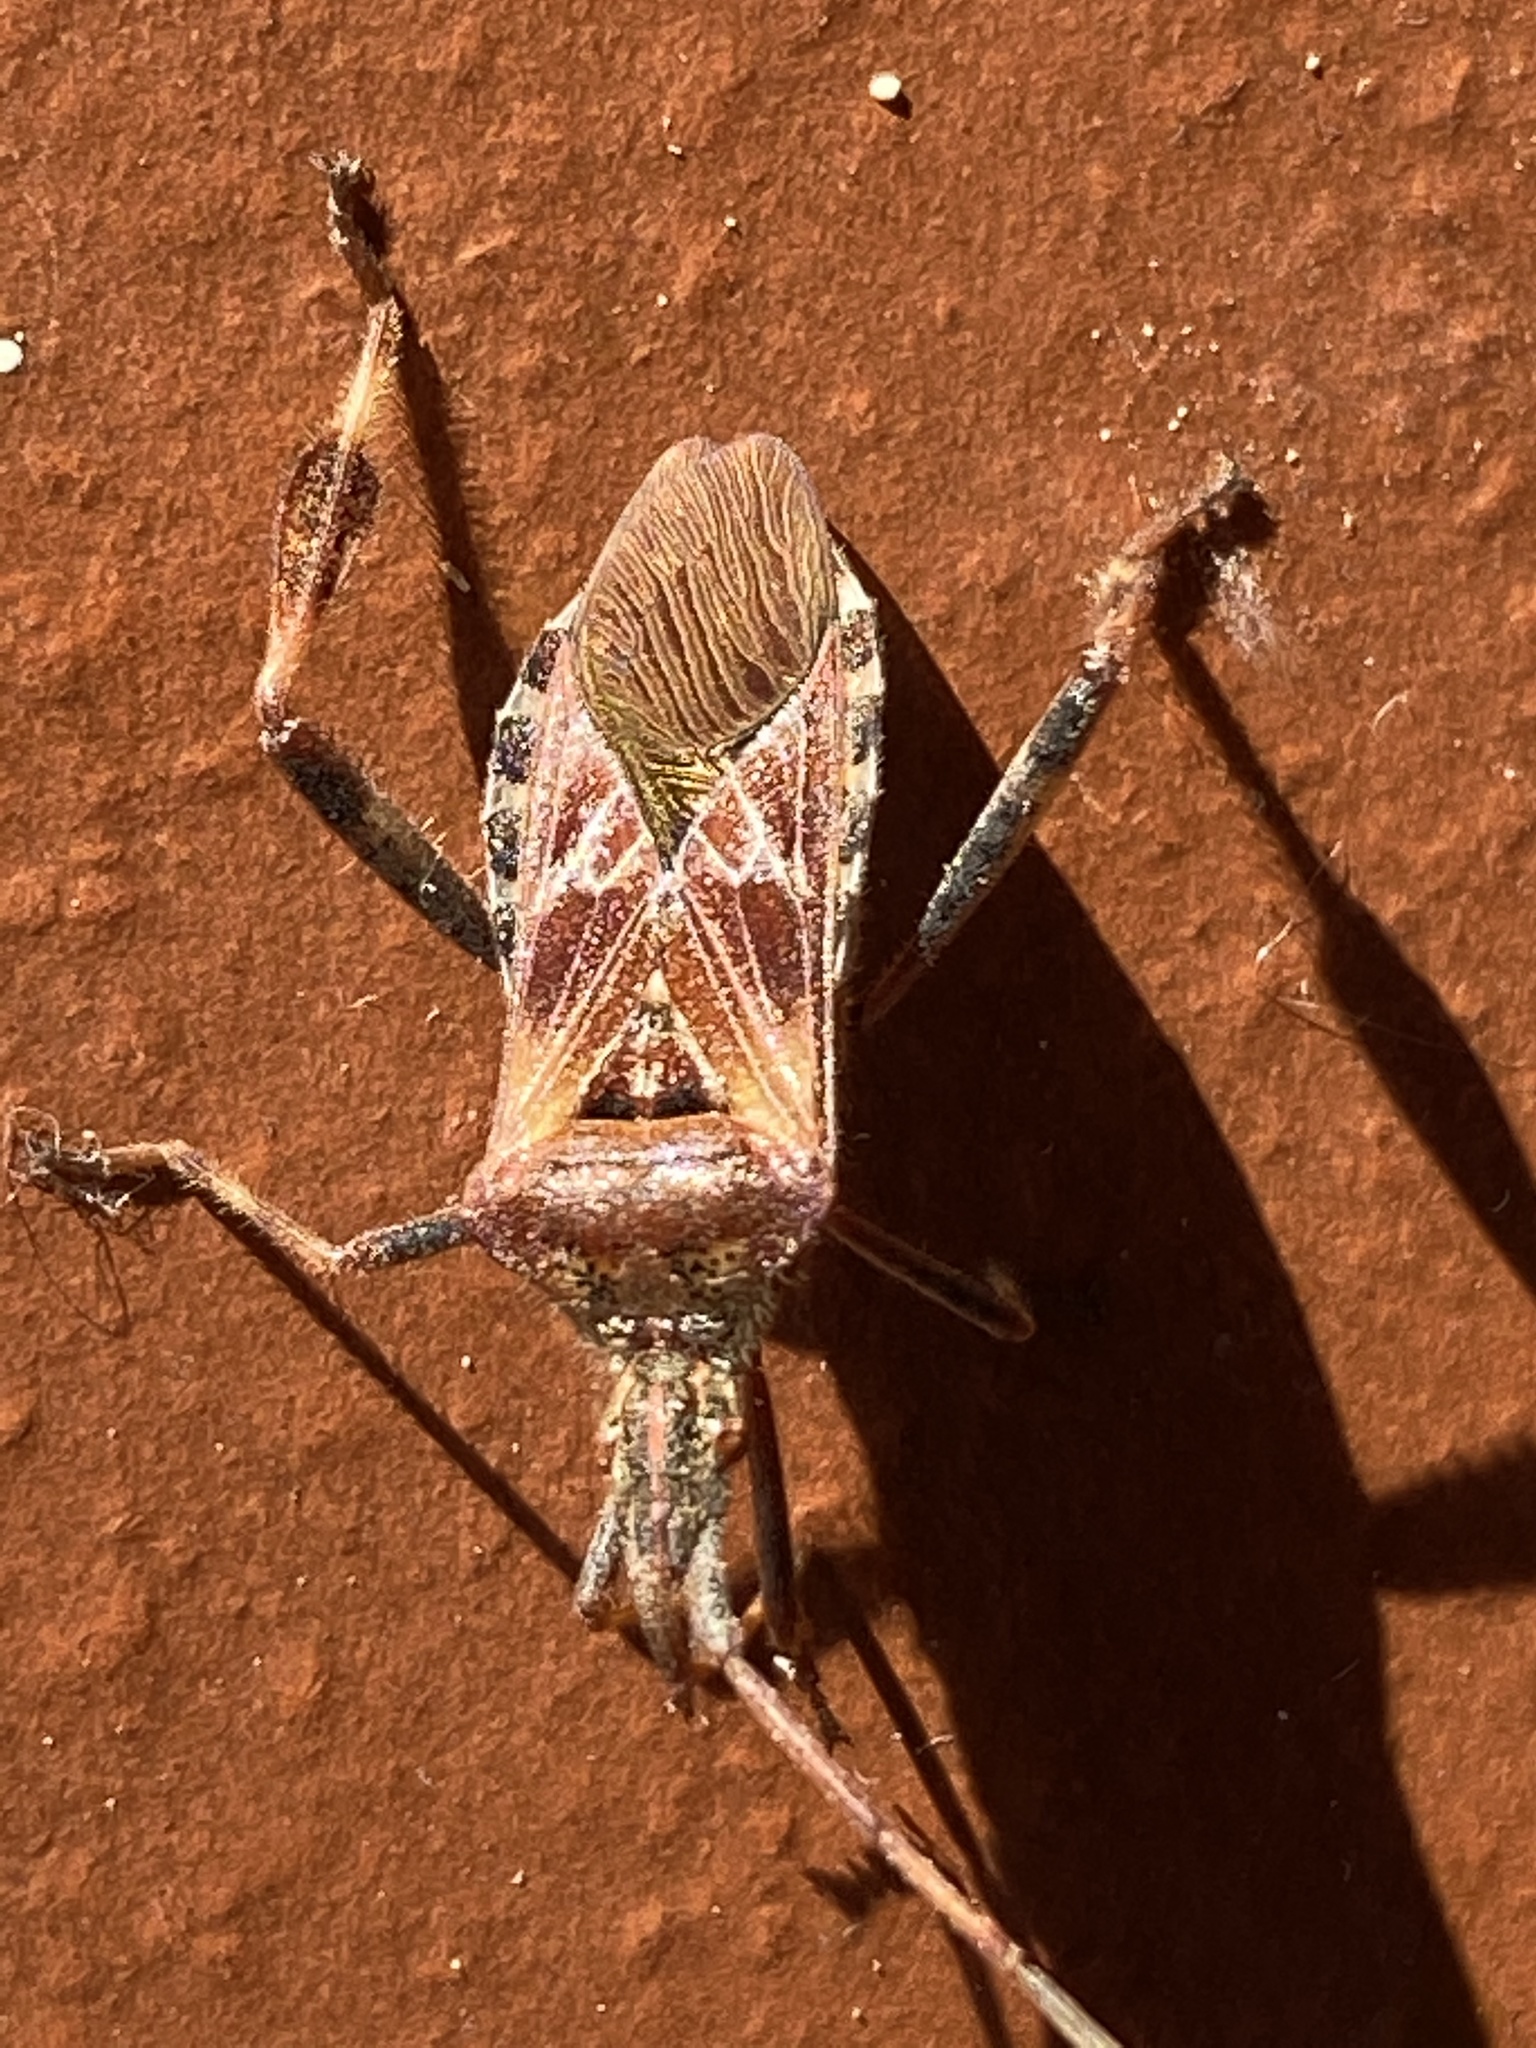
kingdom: Animalia
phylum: Arthropoda
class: Insecta
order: Hemiptera
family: Coreidae
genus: Leptoglossus
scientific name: Leptoglossus occidentalis
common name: Western conifer-seed bug
